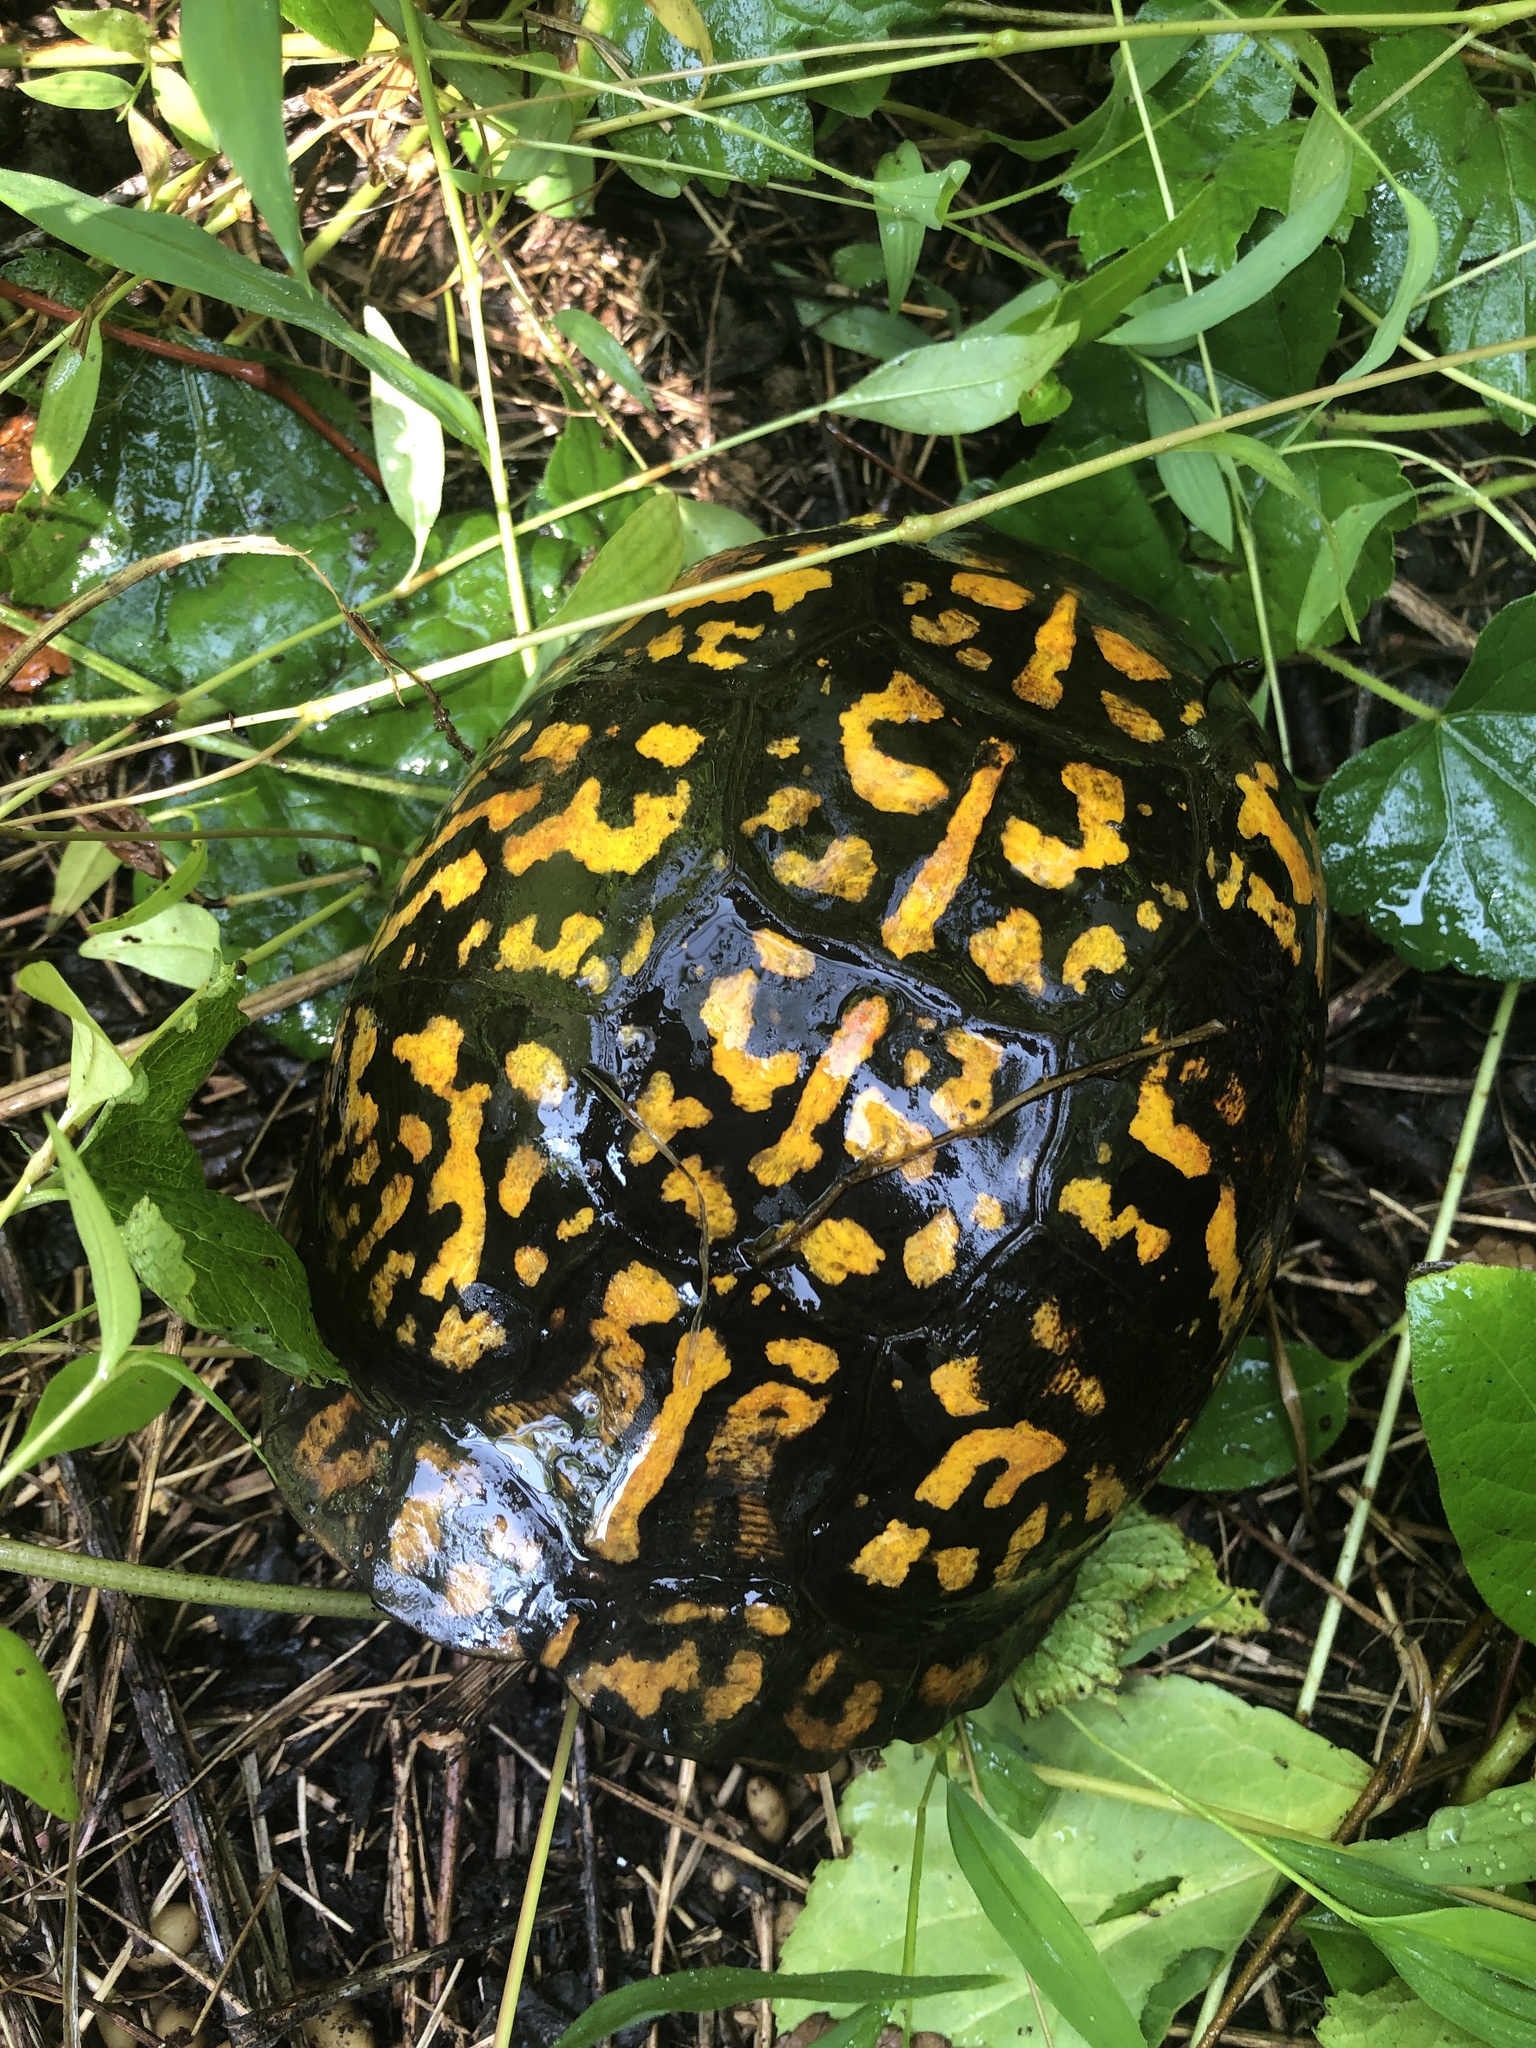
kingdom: Animalia
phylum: Chordata
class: Testudines
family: Emydidae
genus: Terrapene
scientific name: Terrapene carolina
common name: Common box turtle
